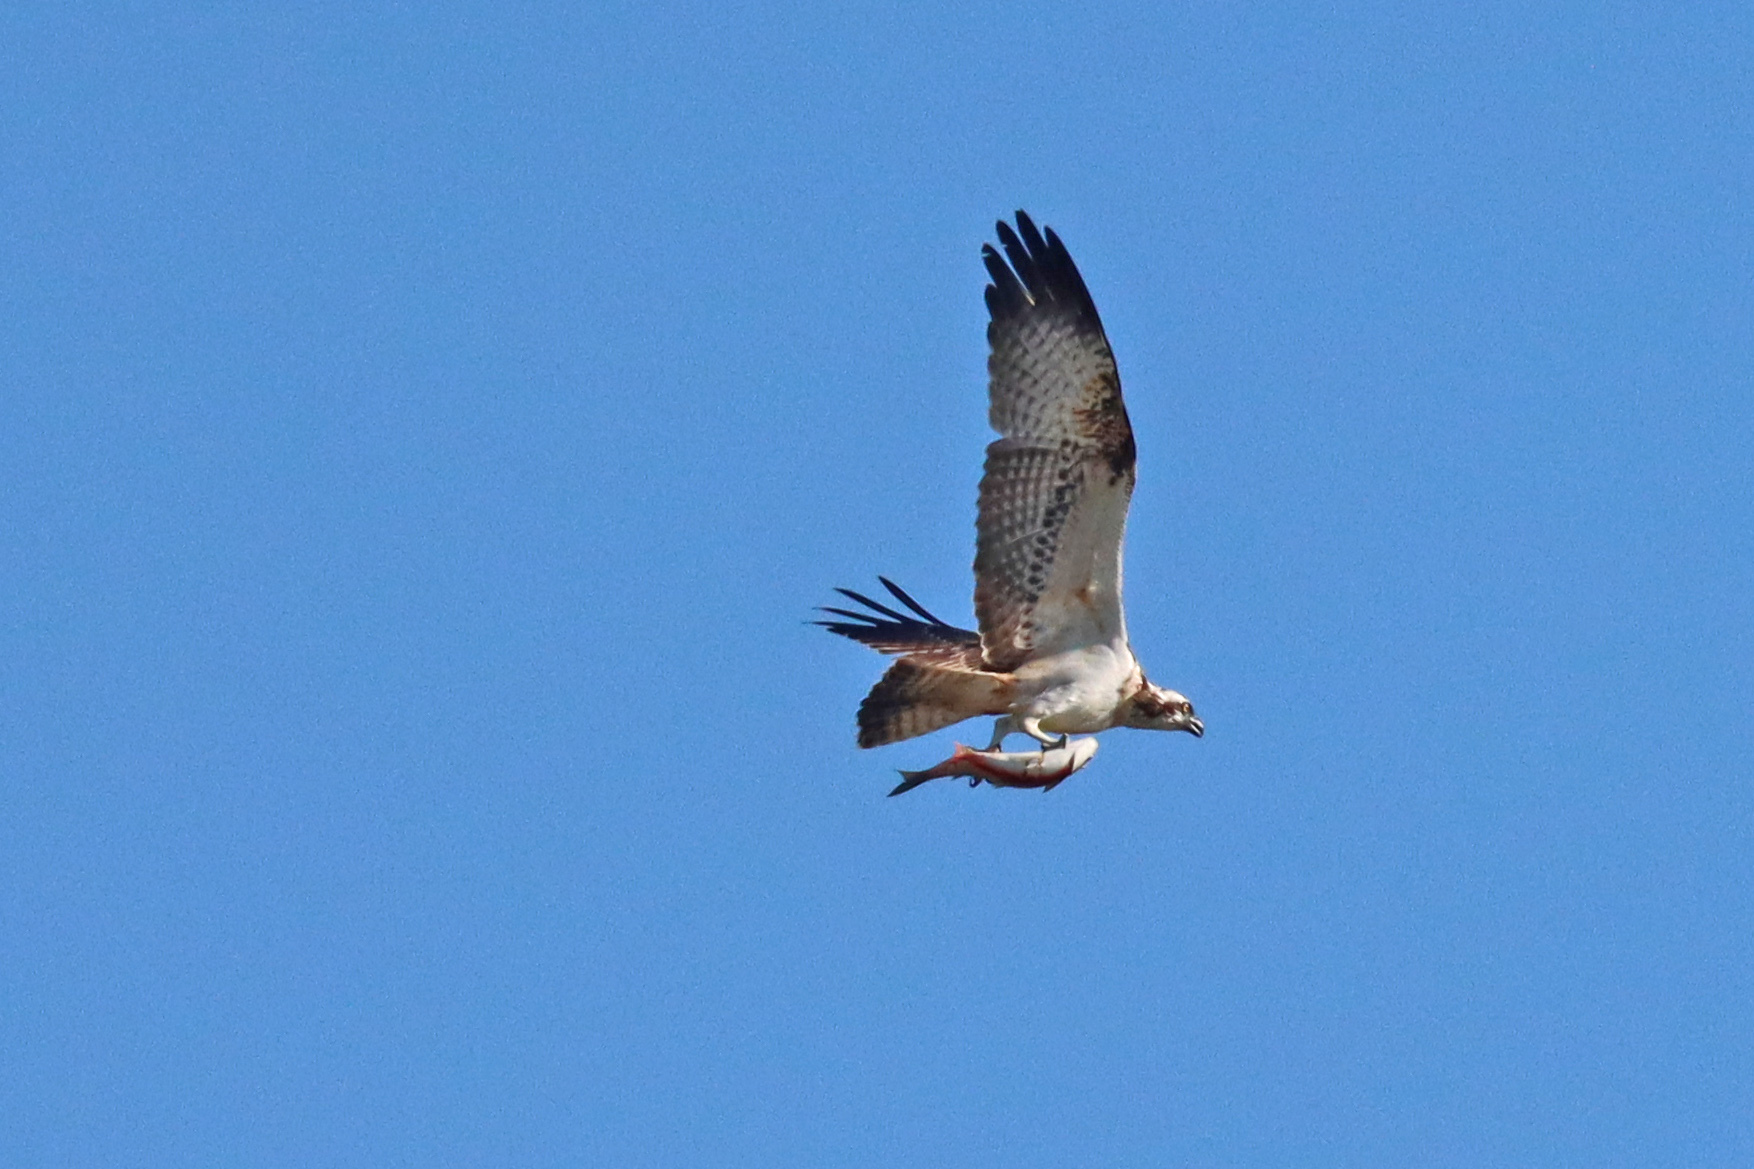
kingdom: Animalia
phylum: Chordata
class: Aves
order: Accipitriformes
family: Pandionidae
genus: Pandion
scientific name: Pandion haliaetus
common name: Osprey
